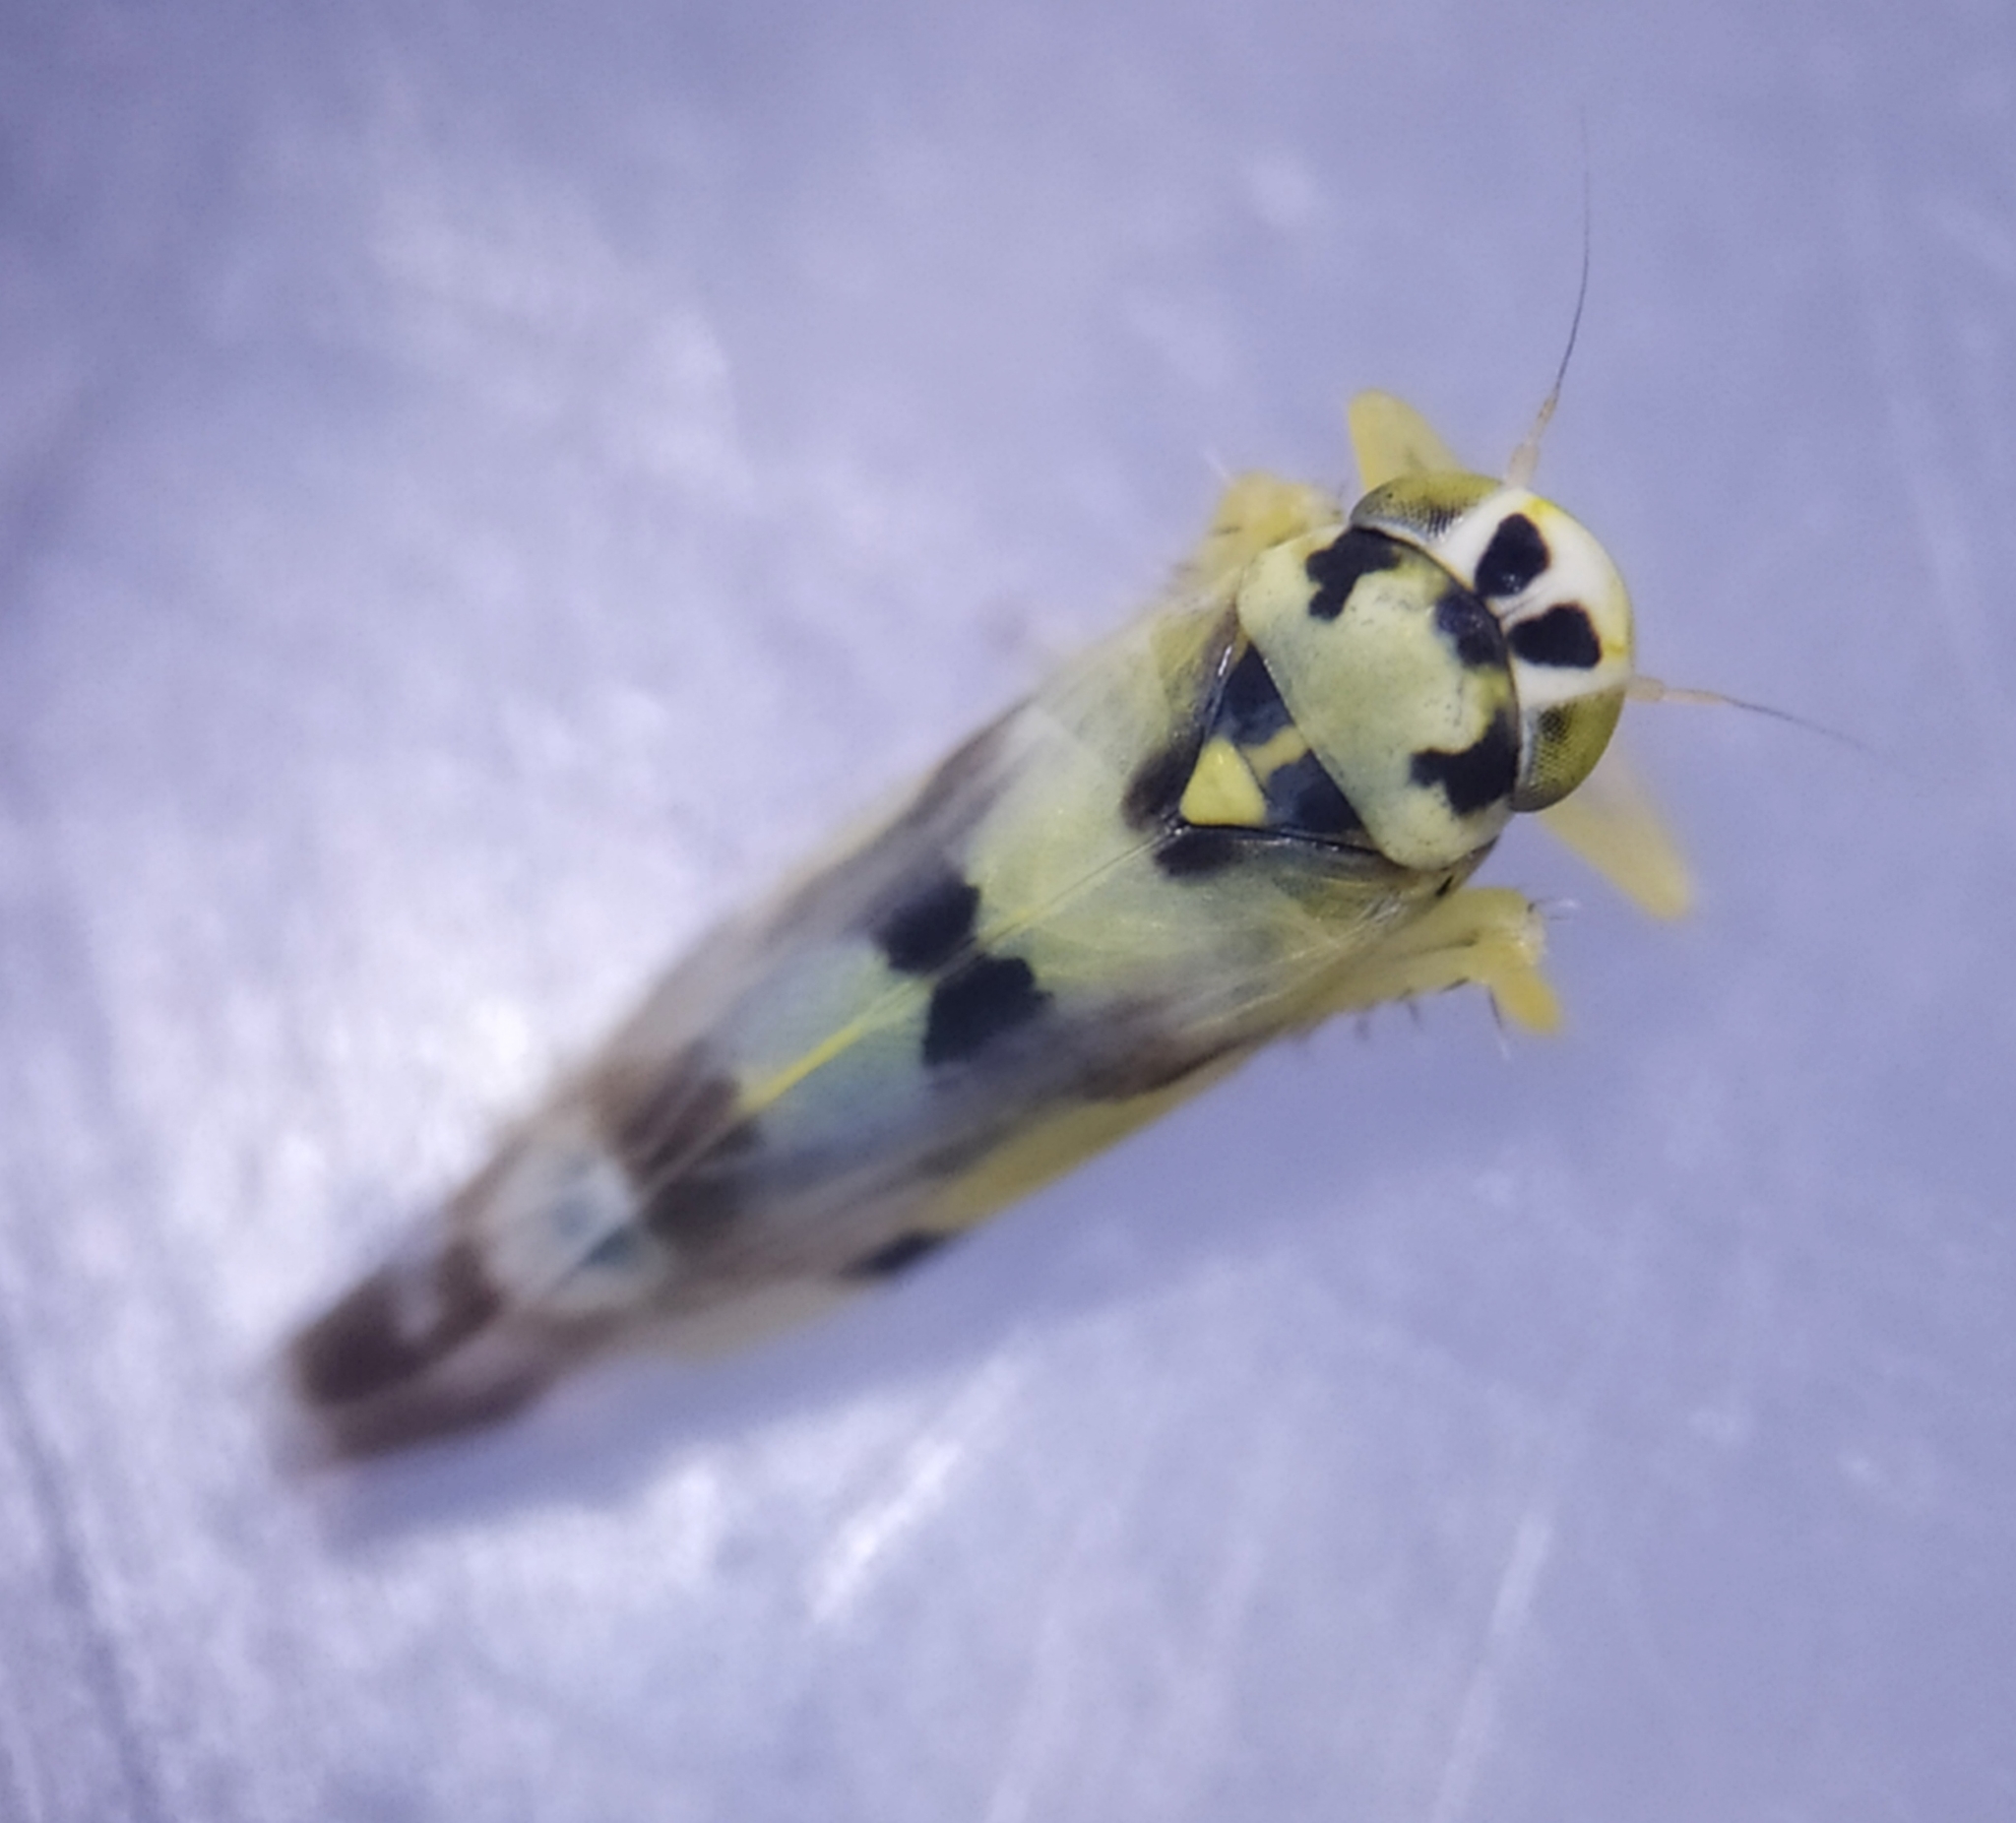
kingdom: Animalia
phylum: Arthropoda
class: Insecta
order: Hemiptera
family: Cicadellidae
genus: Eupteryx
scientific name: Eupteryx atropunctata
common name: Leafhopper
